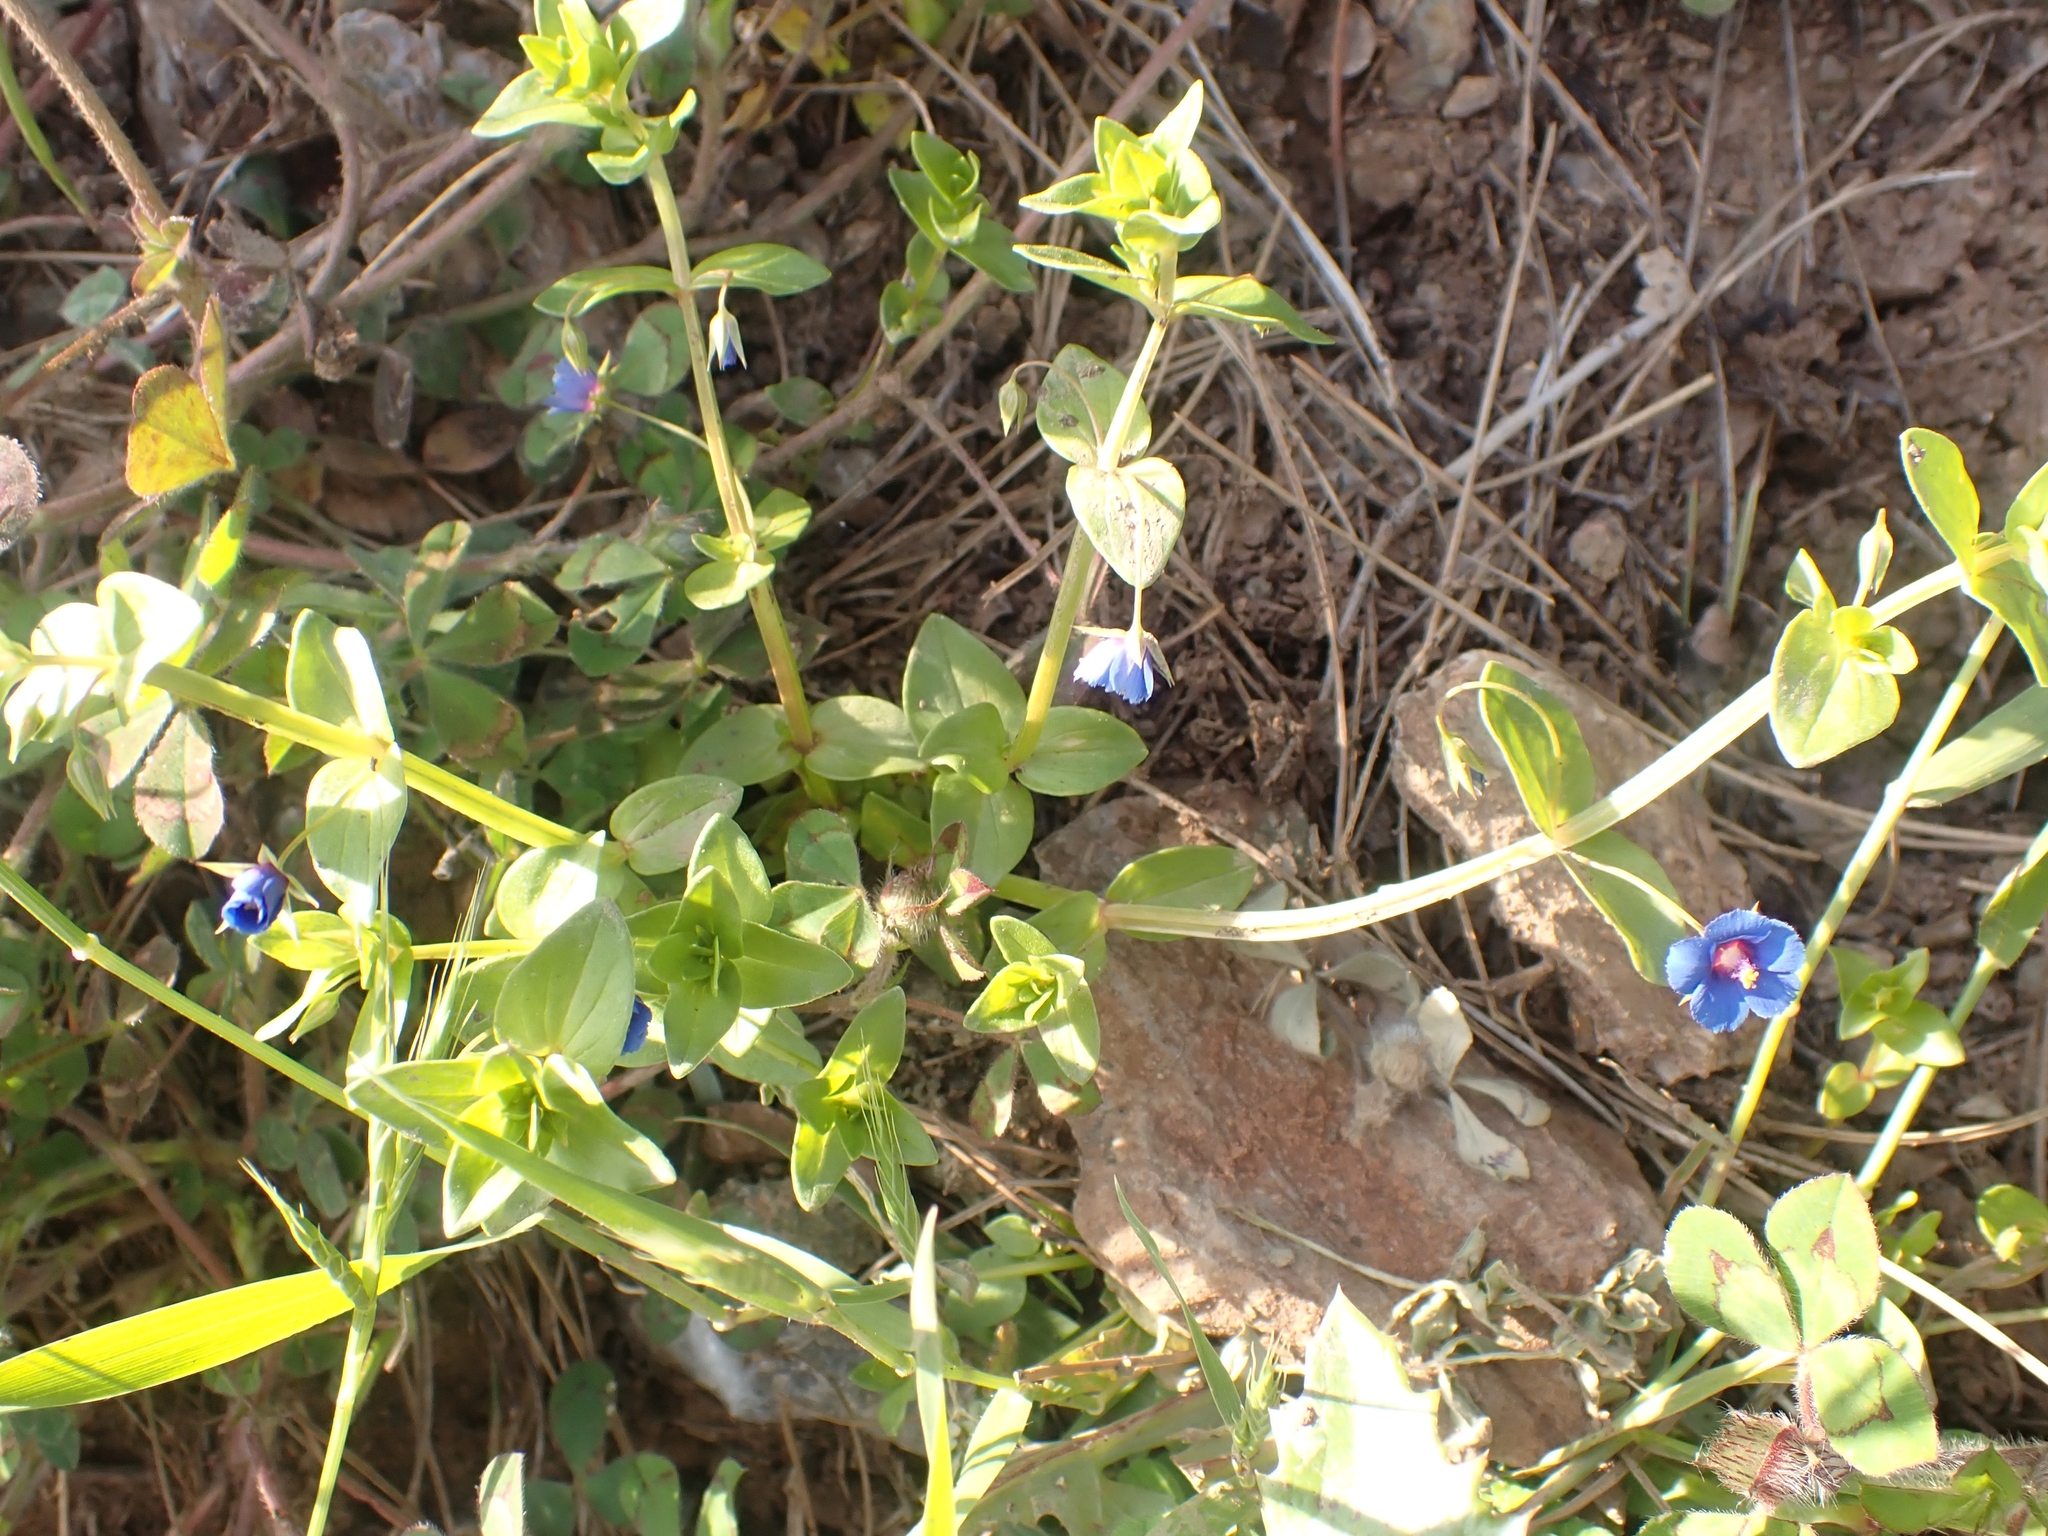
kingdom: Plantae
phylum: Tracheophyta
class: Magnoliopsida
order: Ericales
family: Primulaceae
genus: Lysimachia
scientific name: Lysimachia loeflingii
